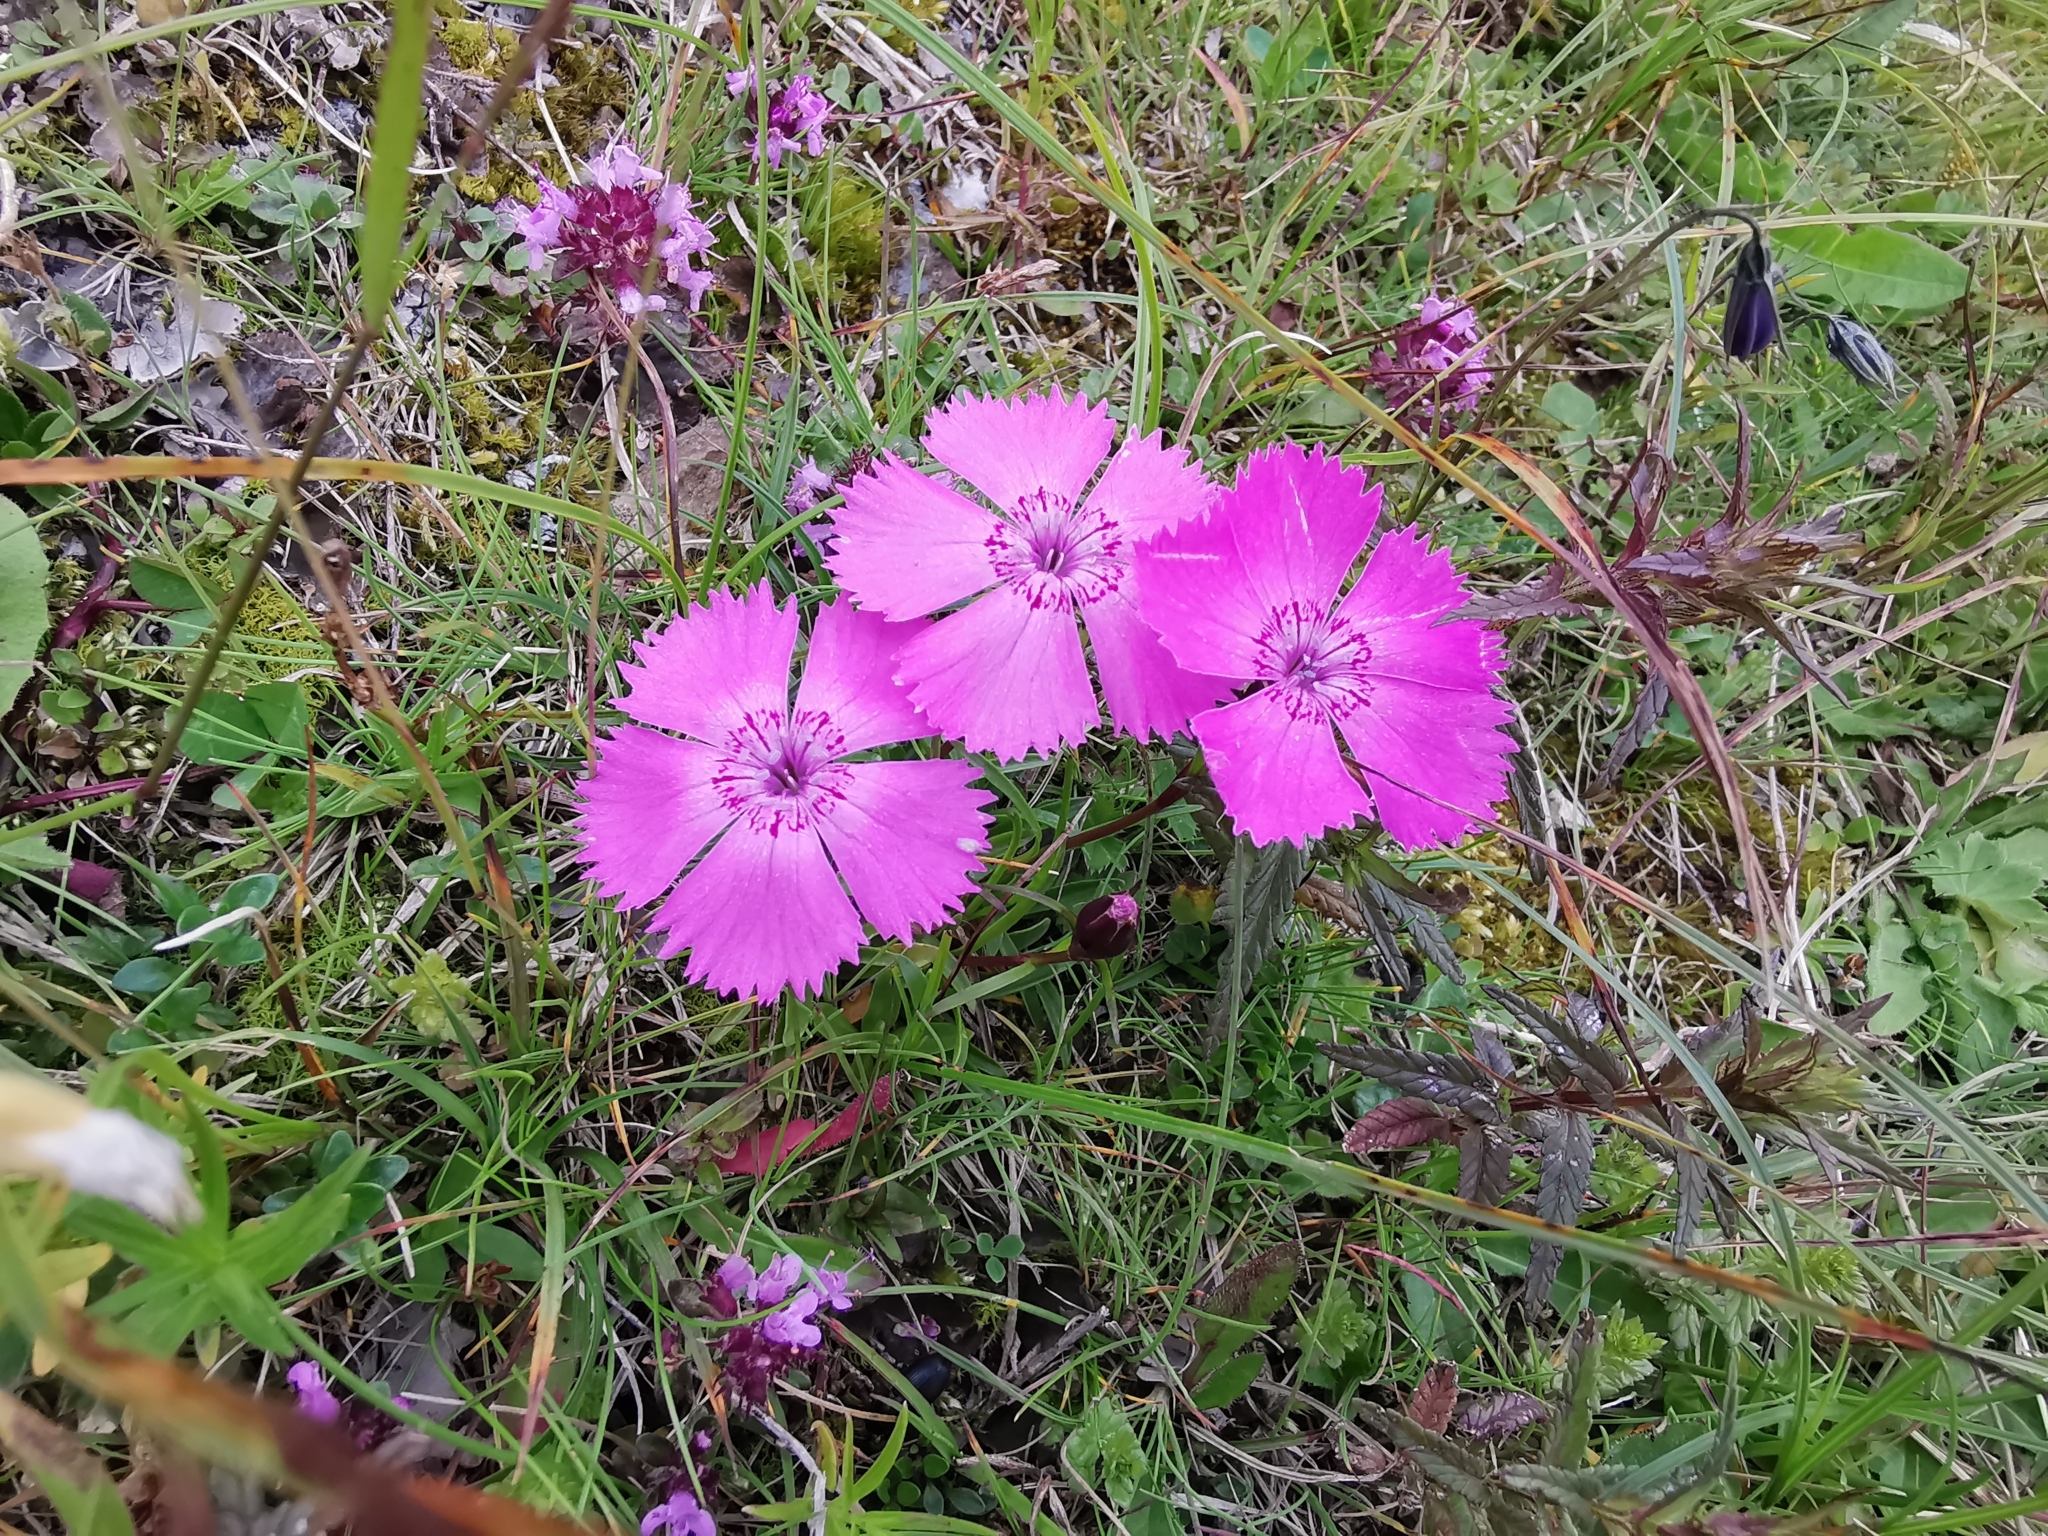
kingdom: Plantae
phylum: Tracheophyta
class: Magnoliopsida
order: Caryophyllales
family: Caryophyllaceae
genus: Dianthus
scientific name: Dianthus alpinus
